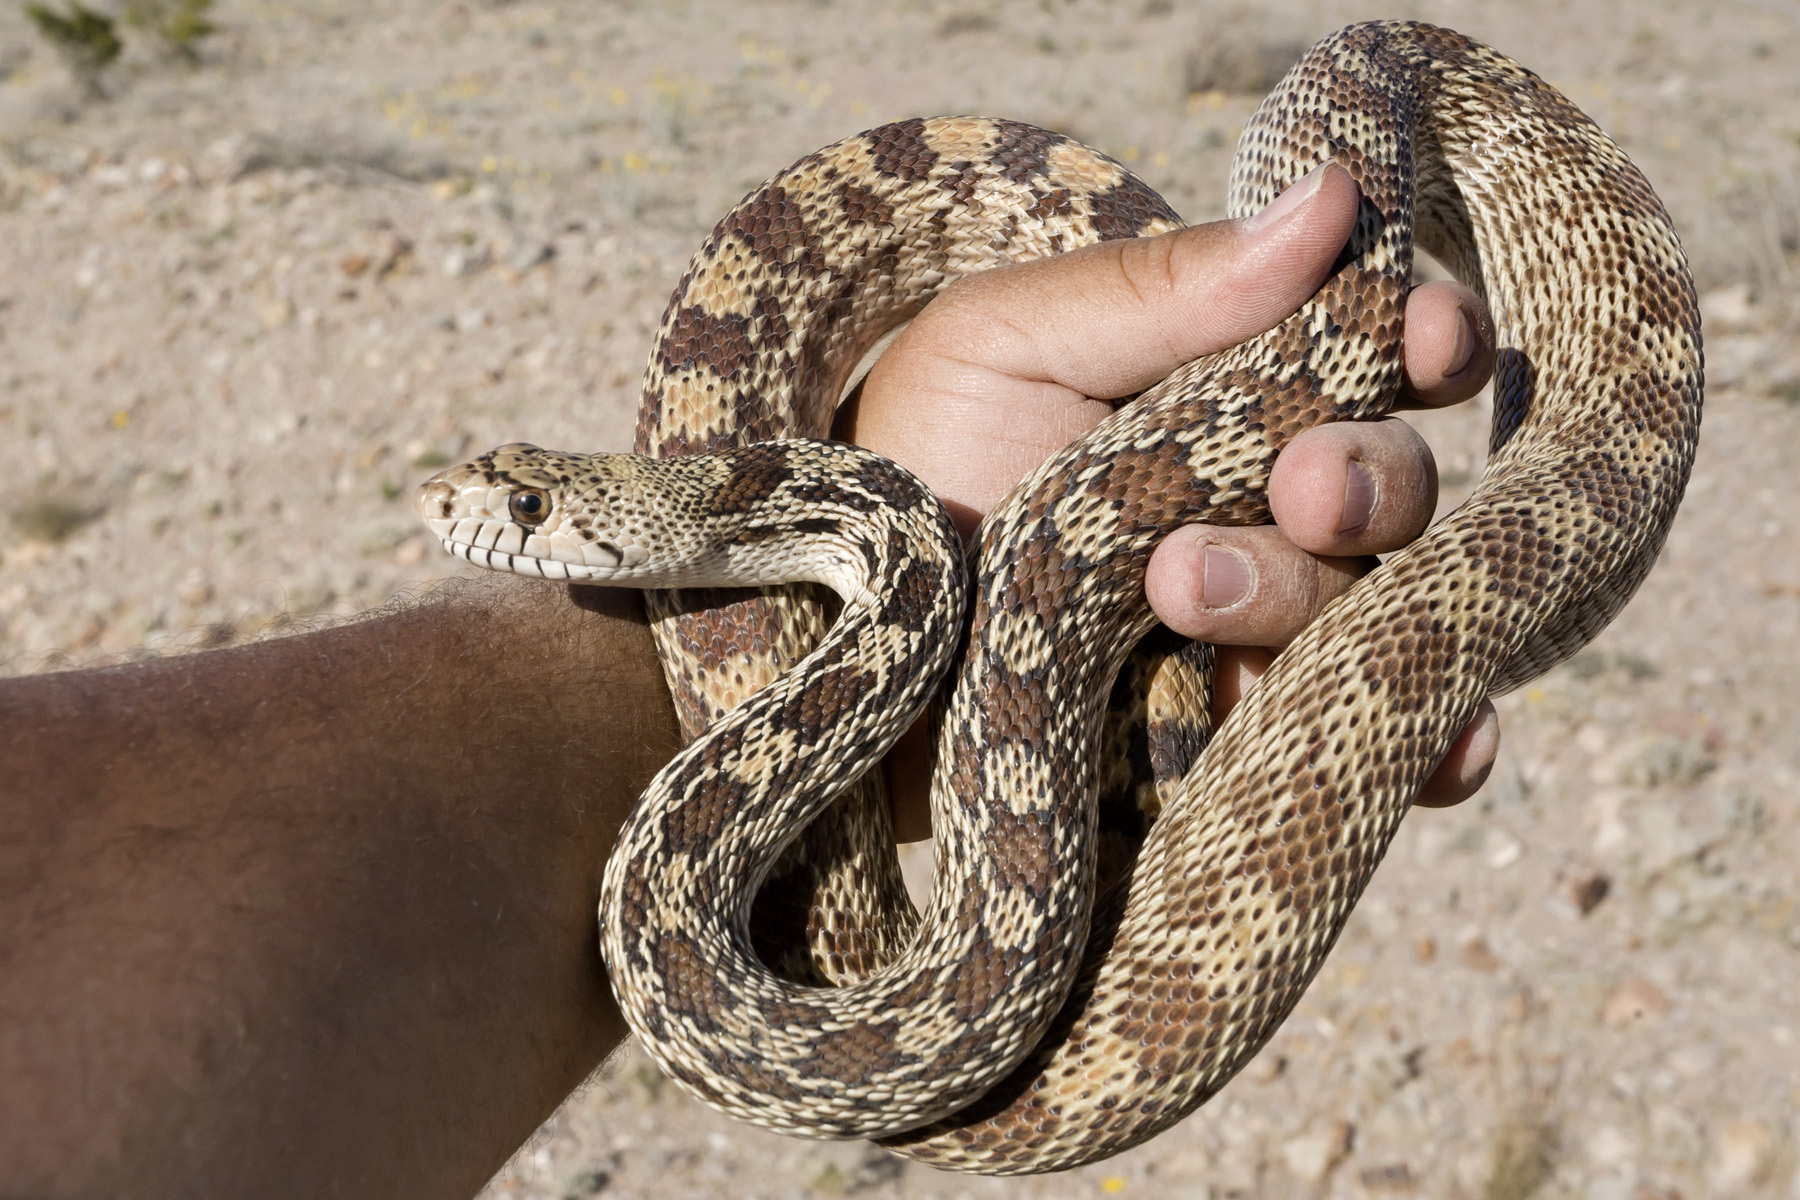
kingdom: Animalia
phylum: Chordata
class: Squamata
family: Colubridae
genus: Pituophis
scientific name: Pituophis catenifer
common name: Gopher snake
